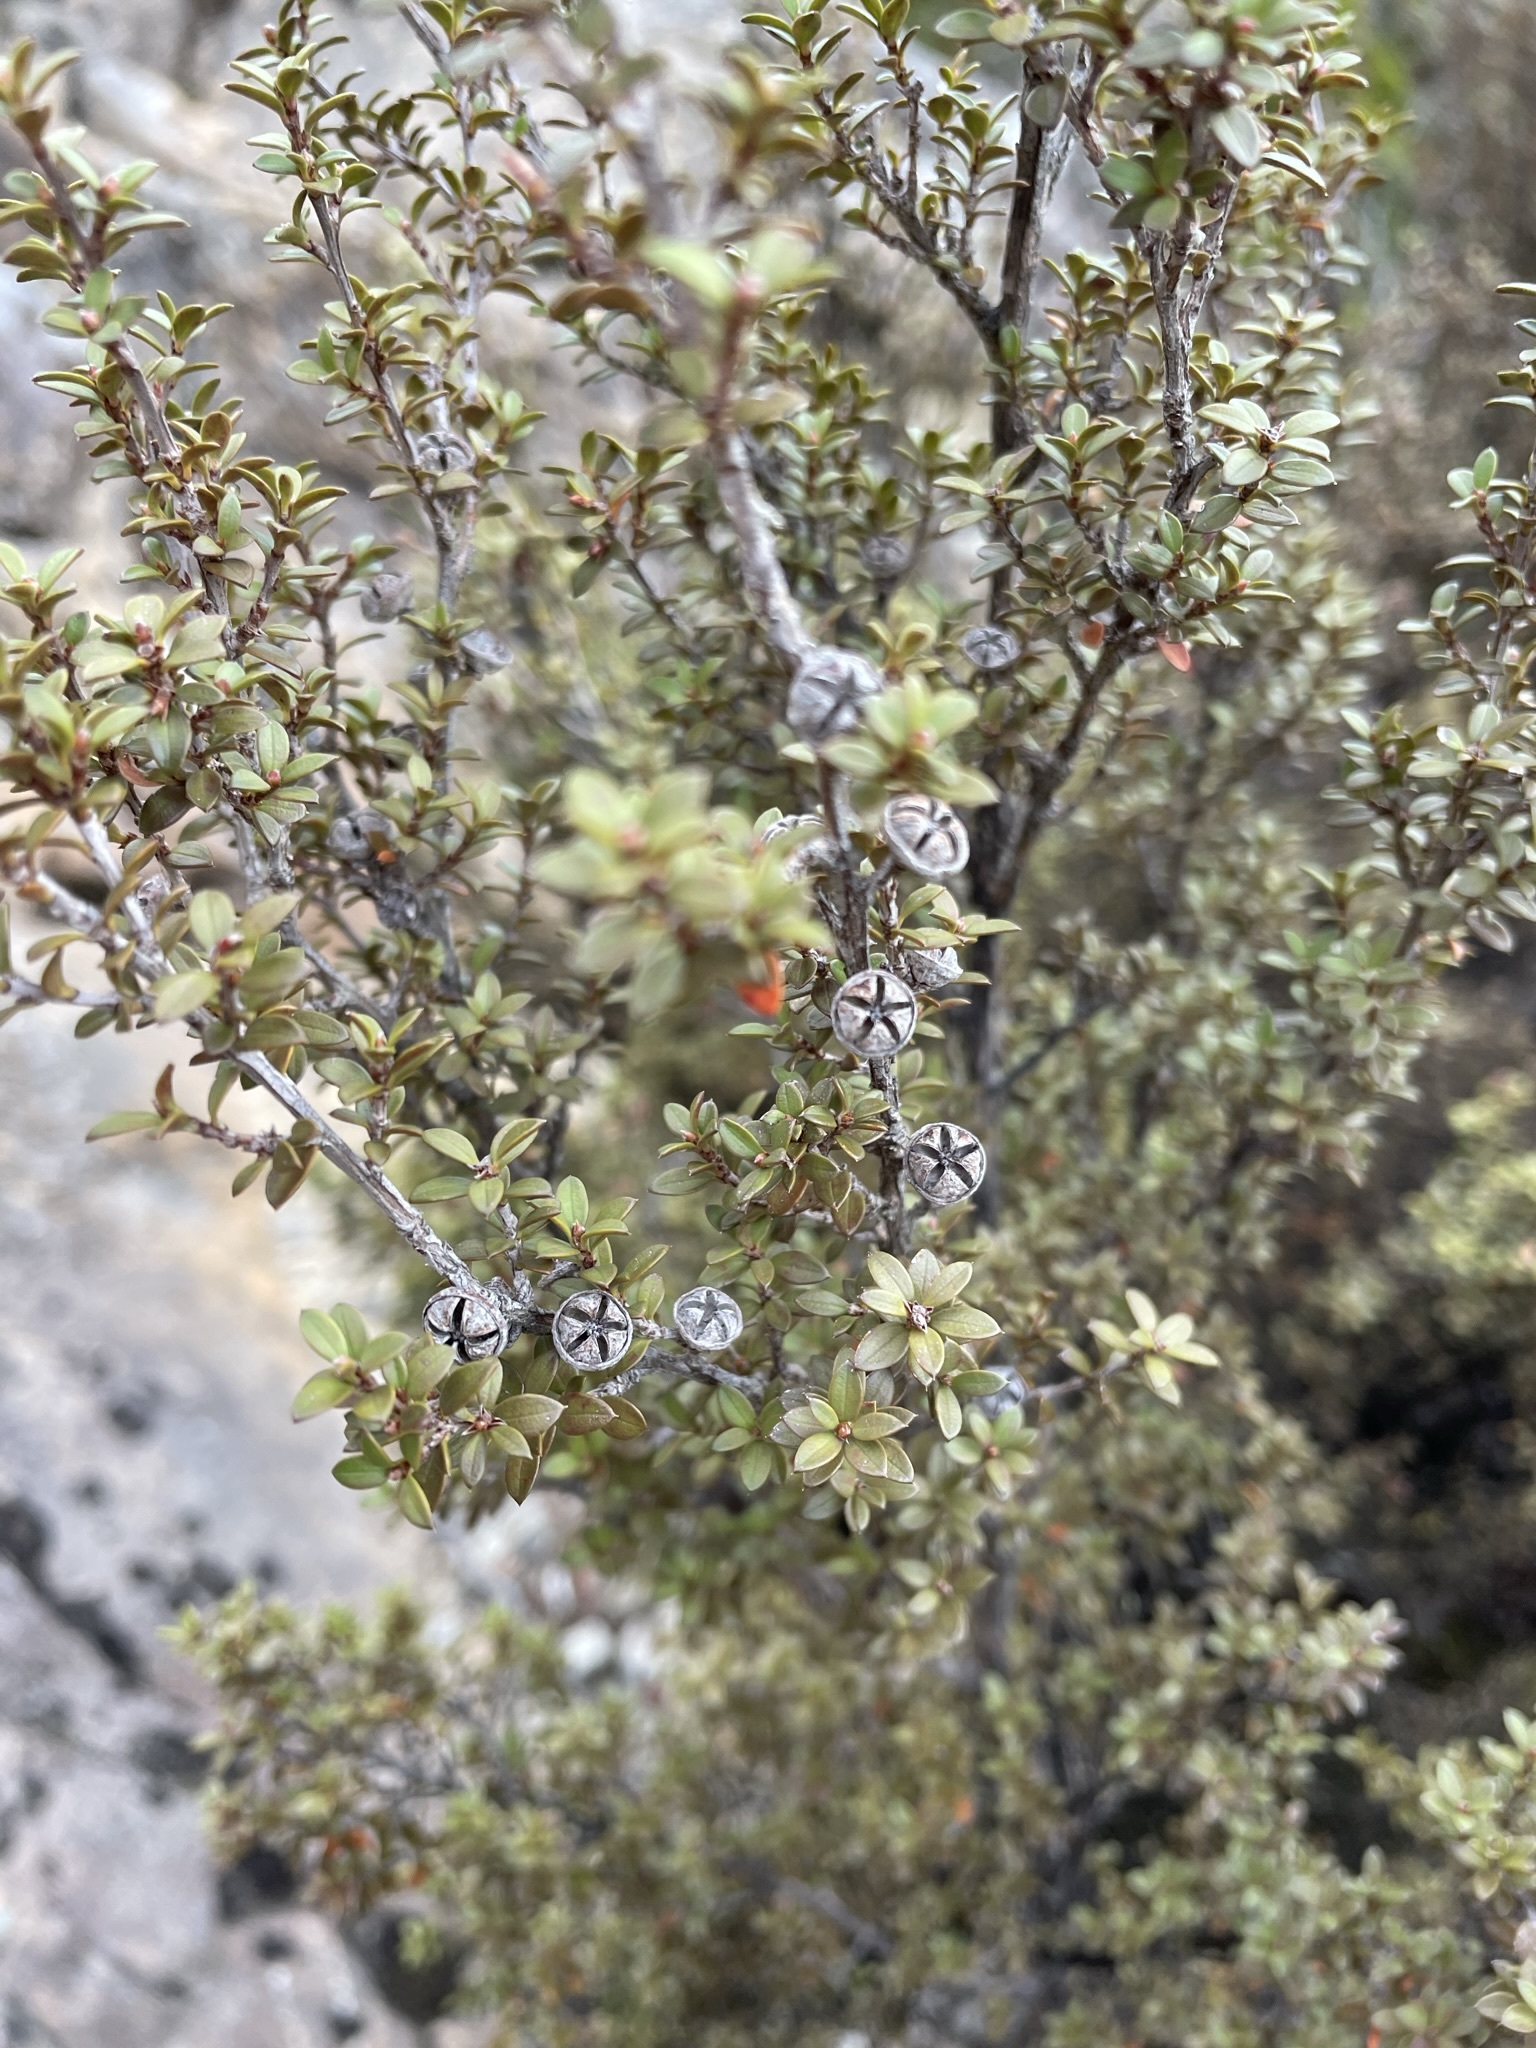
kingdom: Plantae
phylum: Tracheophyta
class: Magnoliopsida
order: Myrtales
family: Myrtaceae
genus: Leptospermum
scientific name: Leptospermum scoparium
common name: Broom tea-tree
